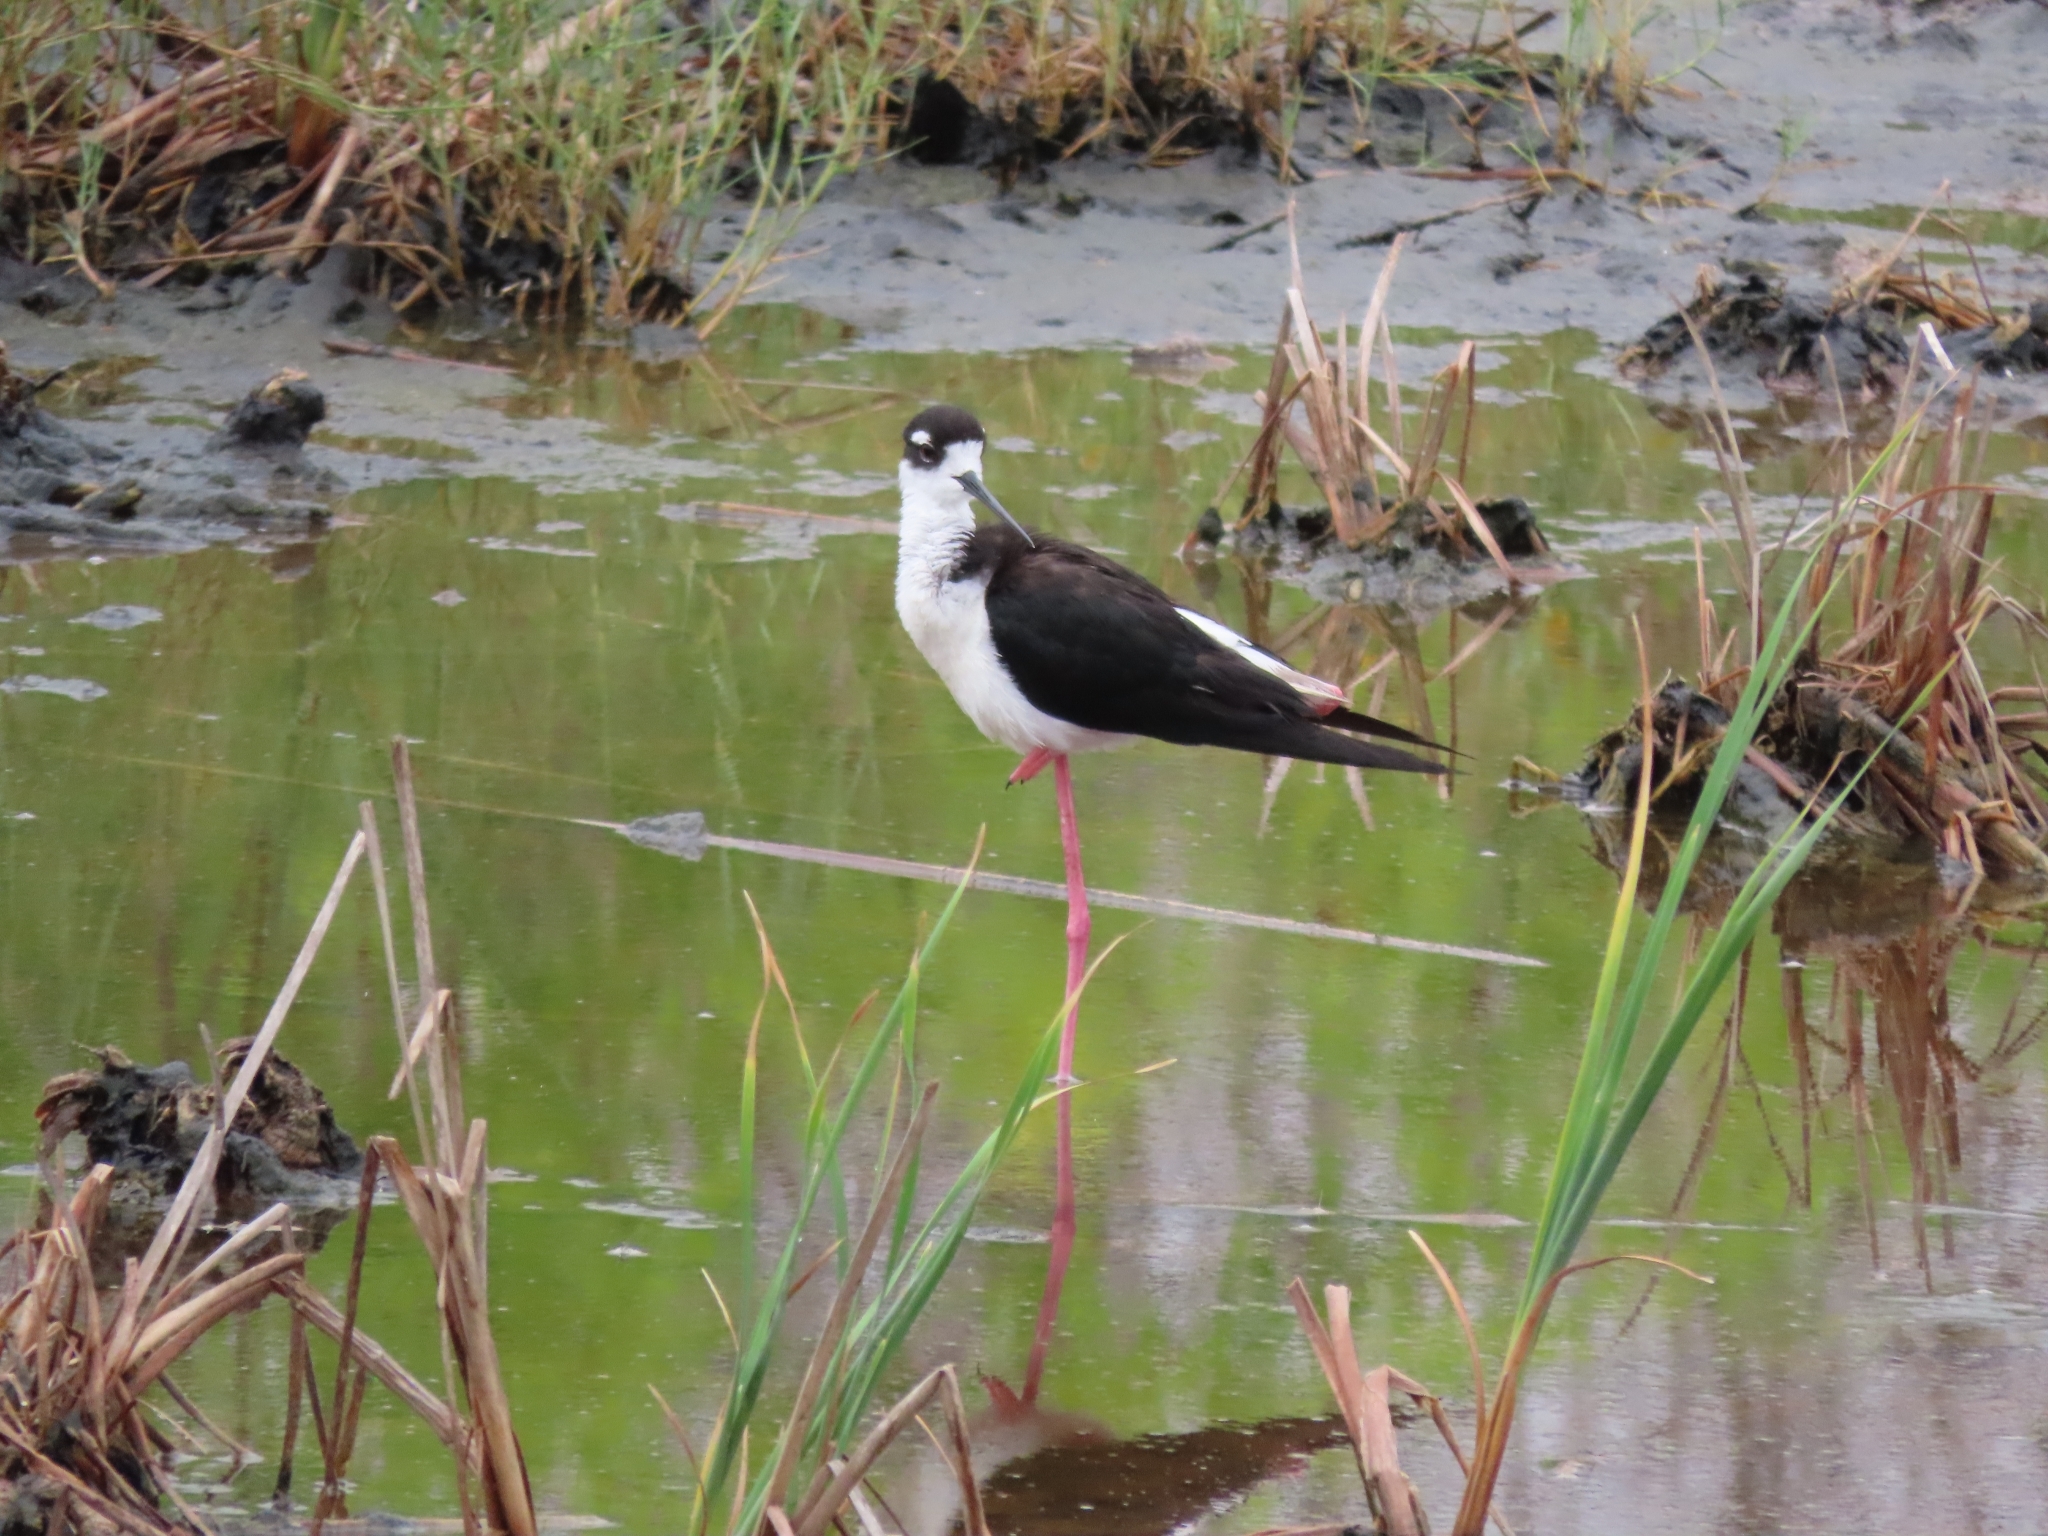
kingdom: Animalia
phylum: Chordata
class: Aves
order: Charadriiformes
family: Recurvirostridae
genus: Himantopus
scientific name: Himantopus mexicanus
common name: Black-necked stilt
